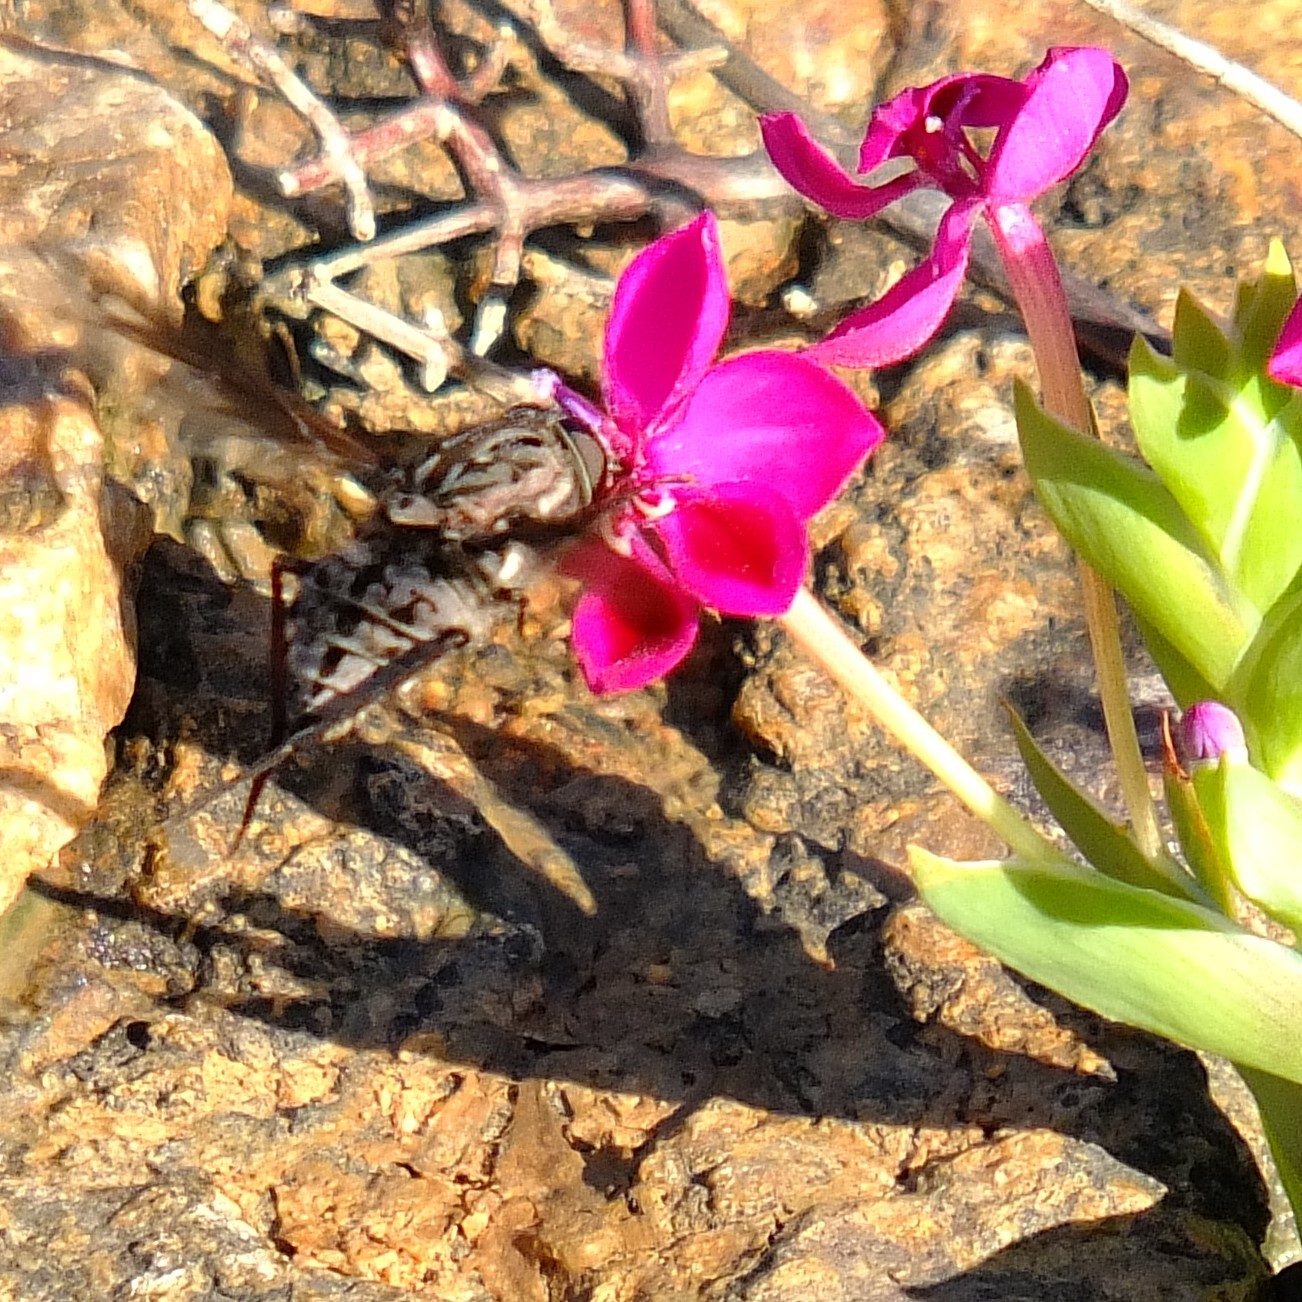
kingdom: Animalia
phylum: Arthropoda
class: Insecta
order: Diptera
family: Nemestrinidae
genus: Prosoeca
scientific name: Prosoeca peringueyi
